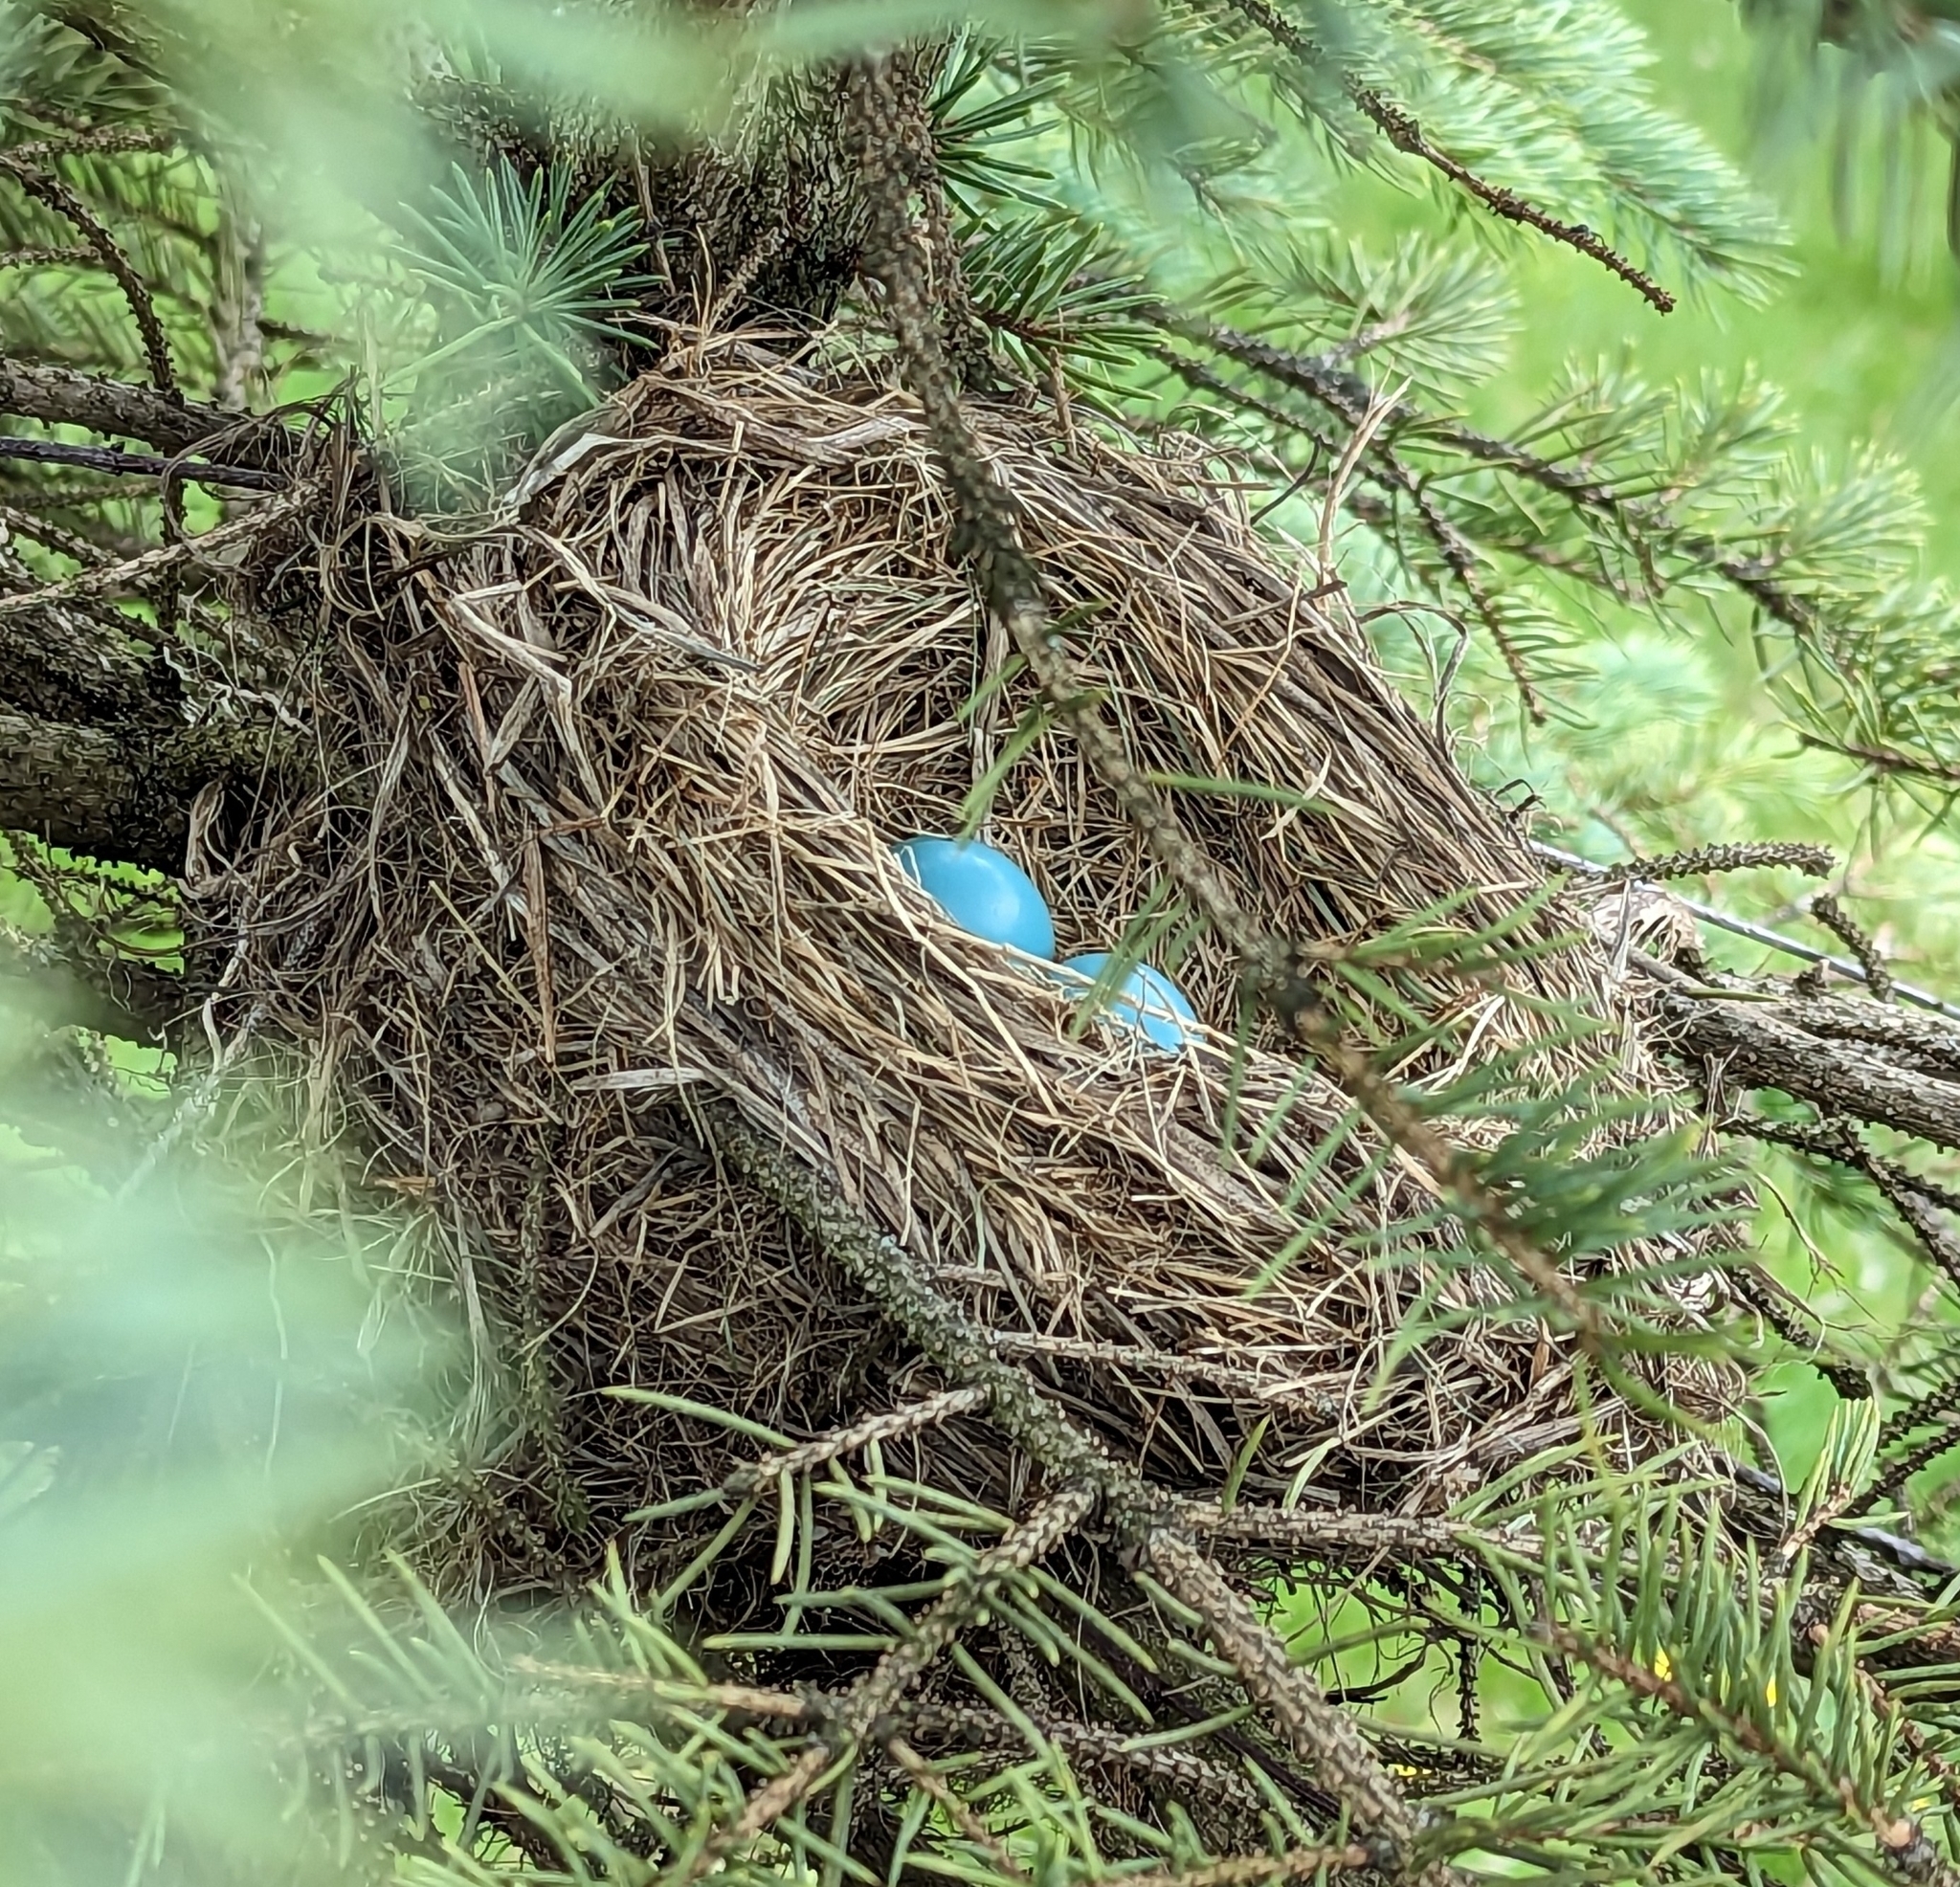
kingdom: Animalia
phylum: Chordata
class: Aves
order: Passeriformes
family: Turdidae
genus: Turdus
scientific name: Turdus migratorius
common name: American robin
